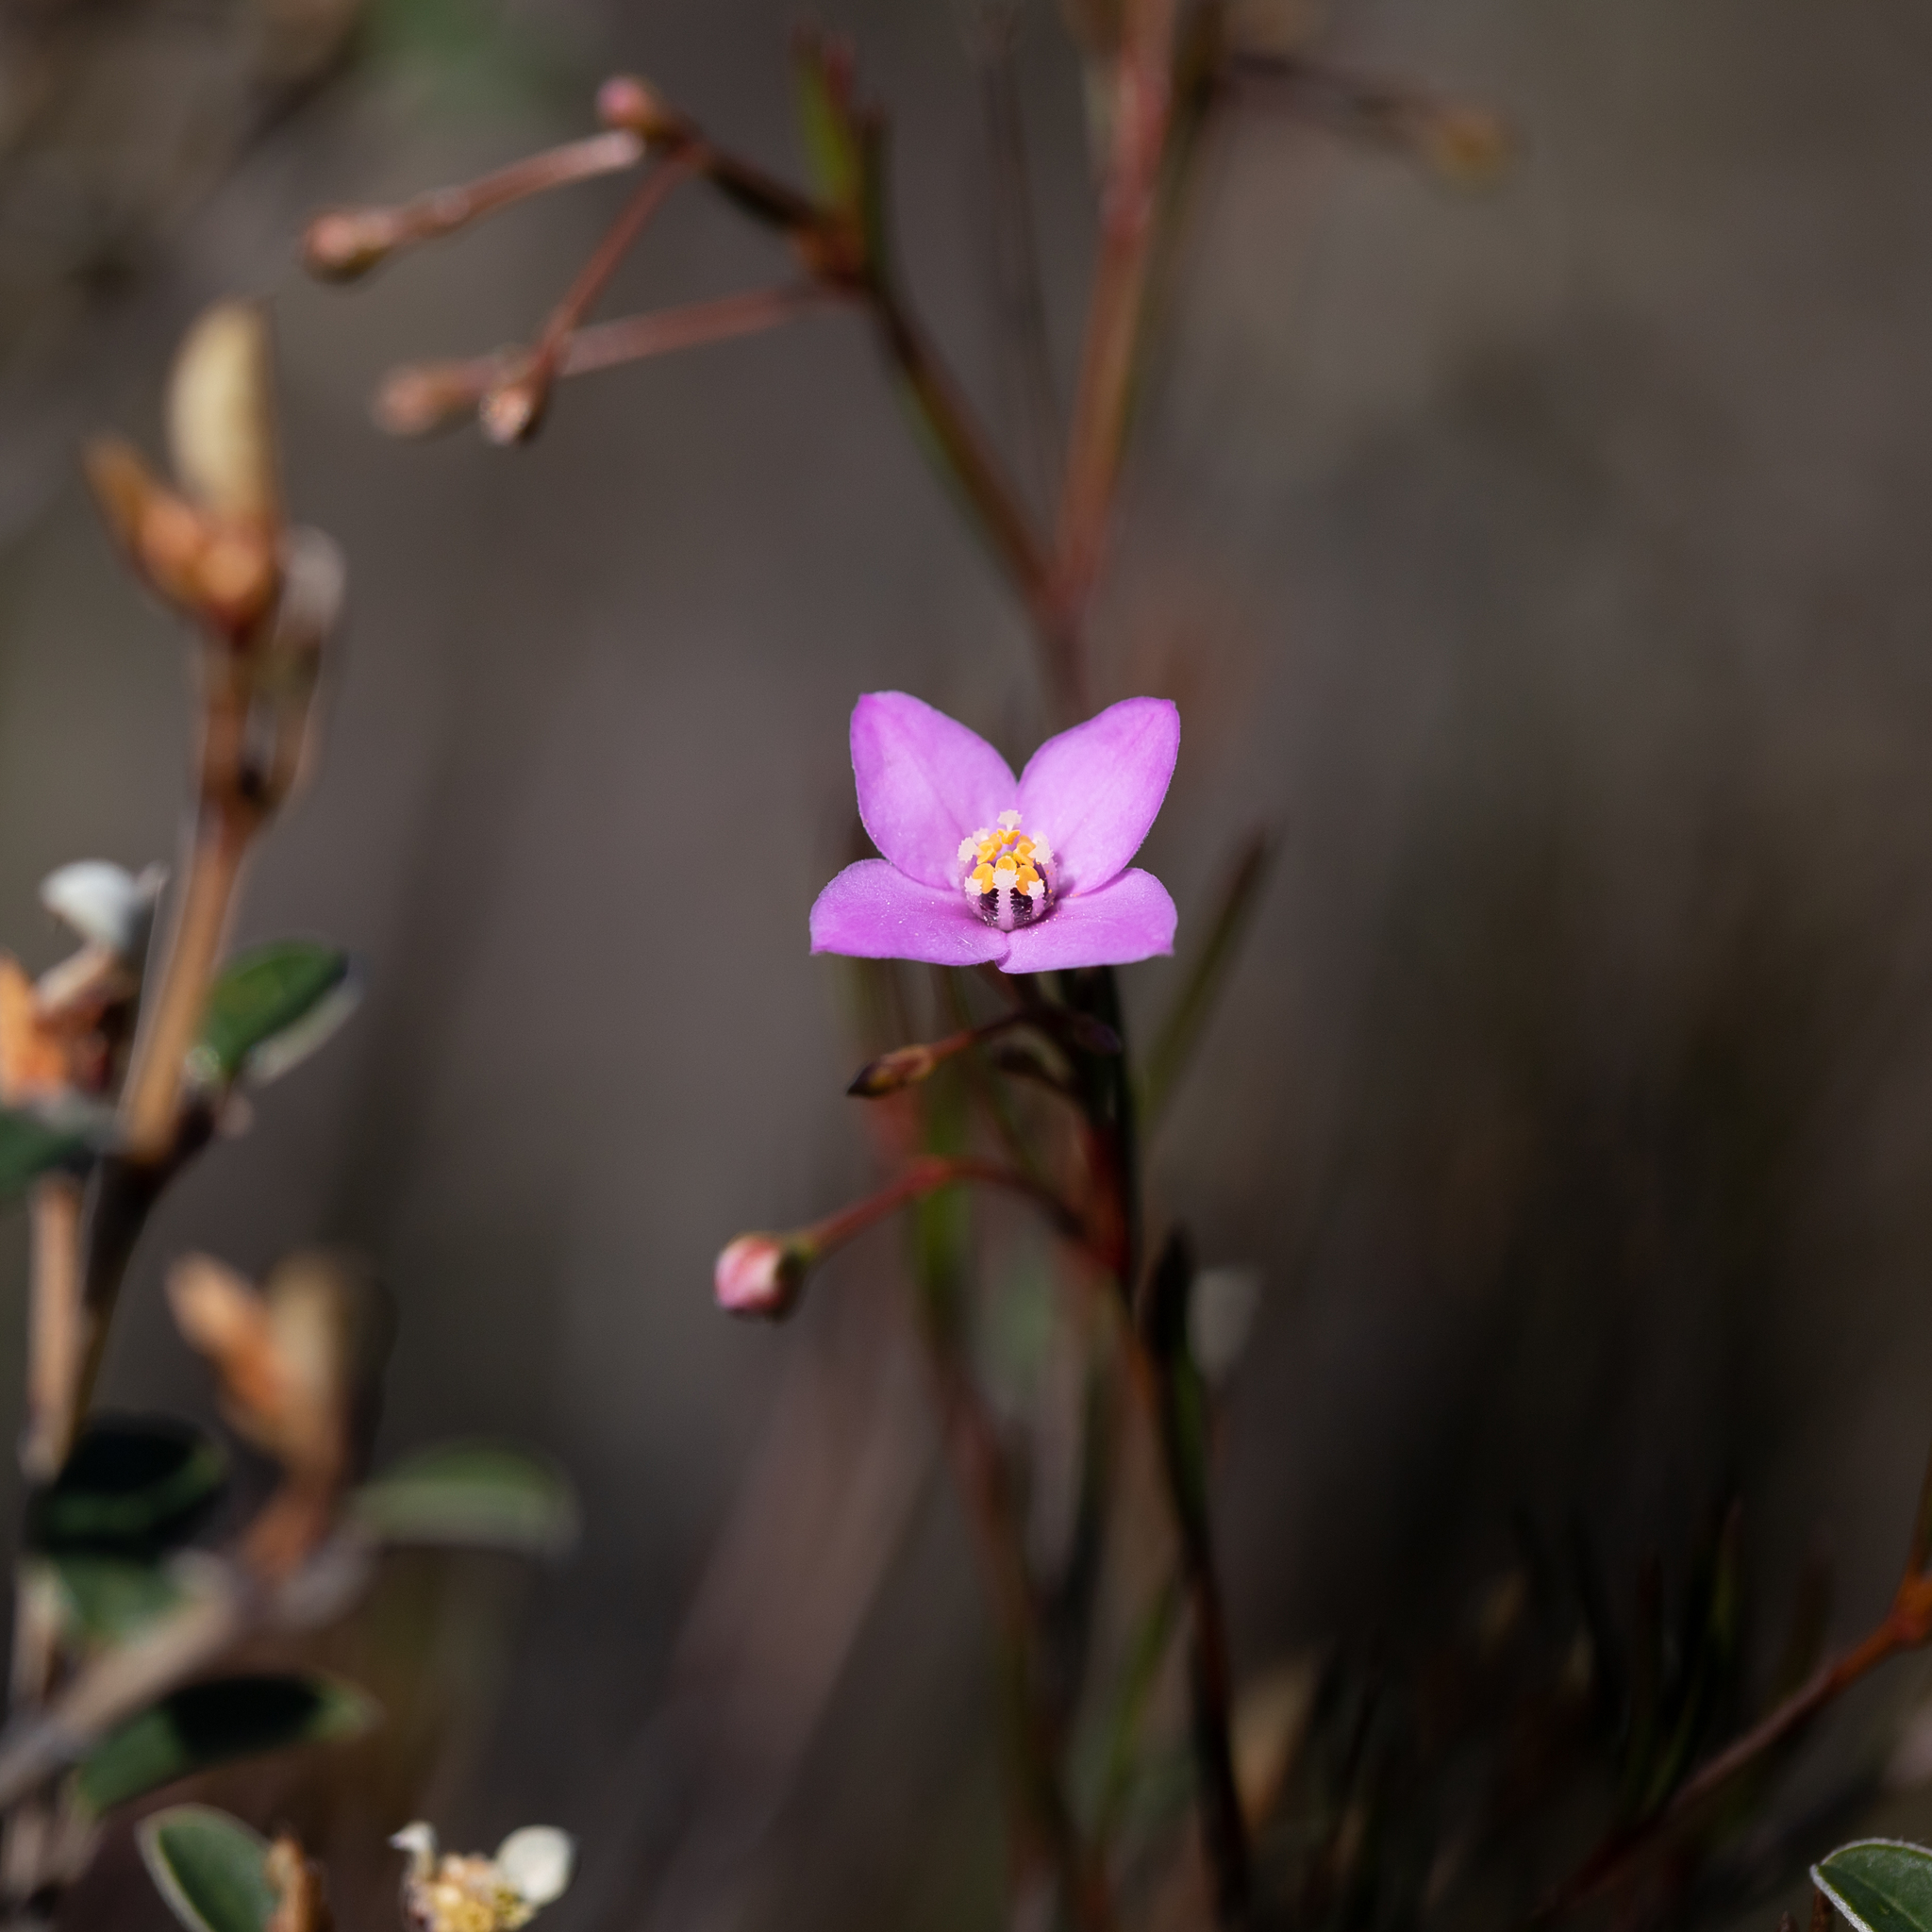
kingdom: Plantae
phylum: Tracheophyta
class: Magnoliopsida
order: Sapindales
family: Rutaceae
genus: Boronia
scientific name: Boronia filifolia
